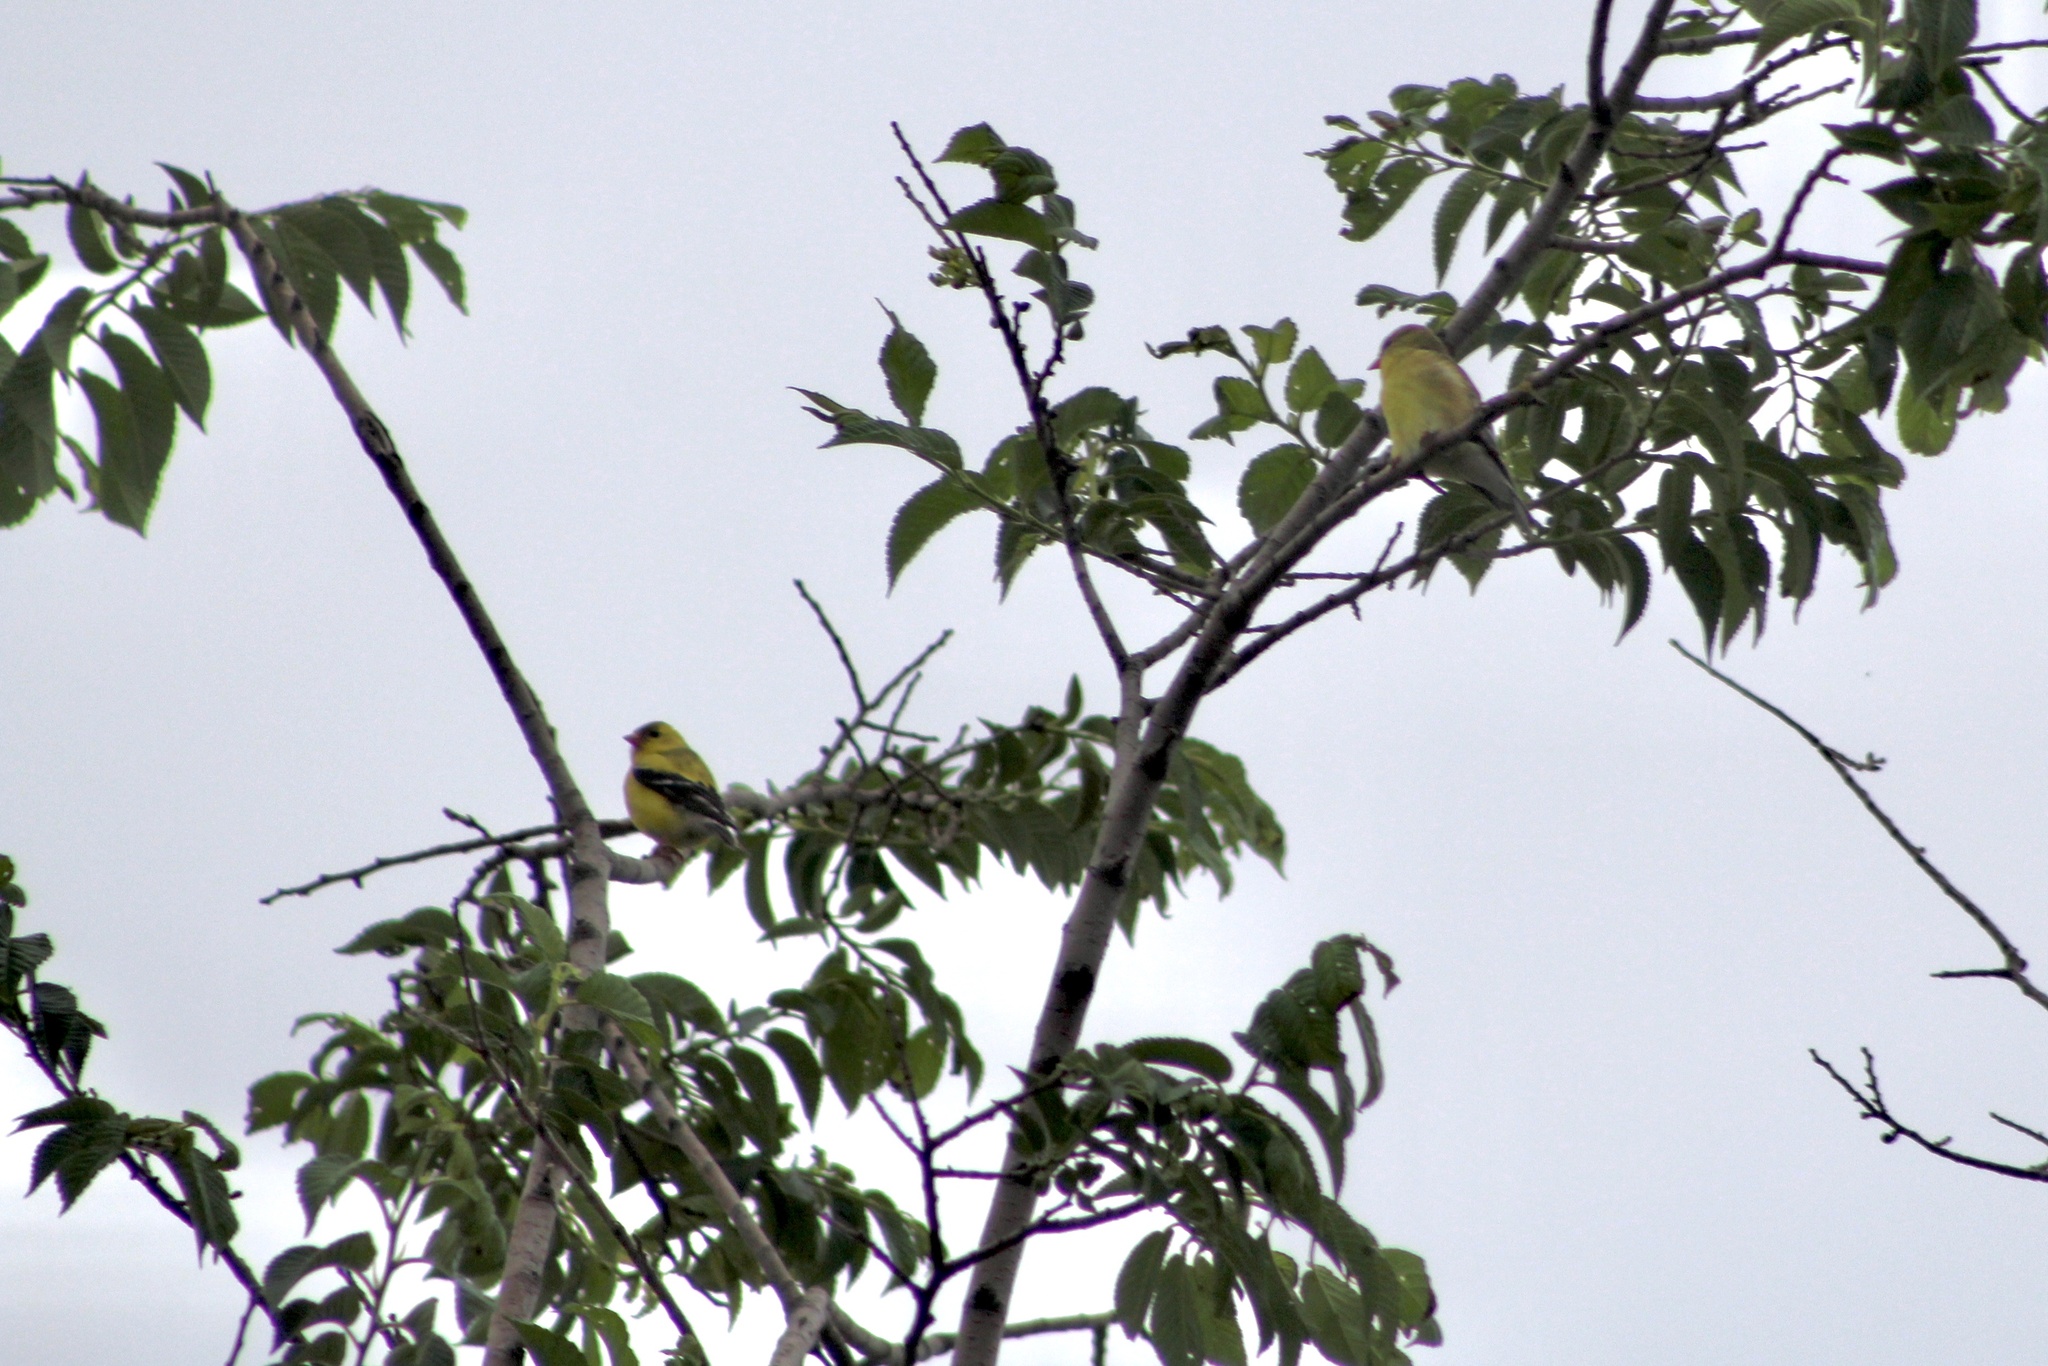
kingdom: Animalia
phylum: Chordata
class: Aves
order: Passeriformes
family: Fringillidae
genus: Spinus
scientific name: Spinus tristis
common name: American goldfinch
